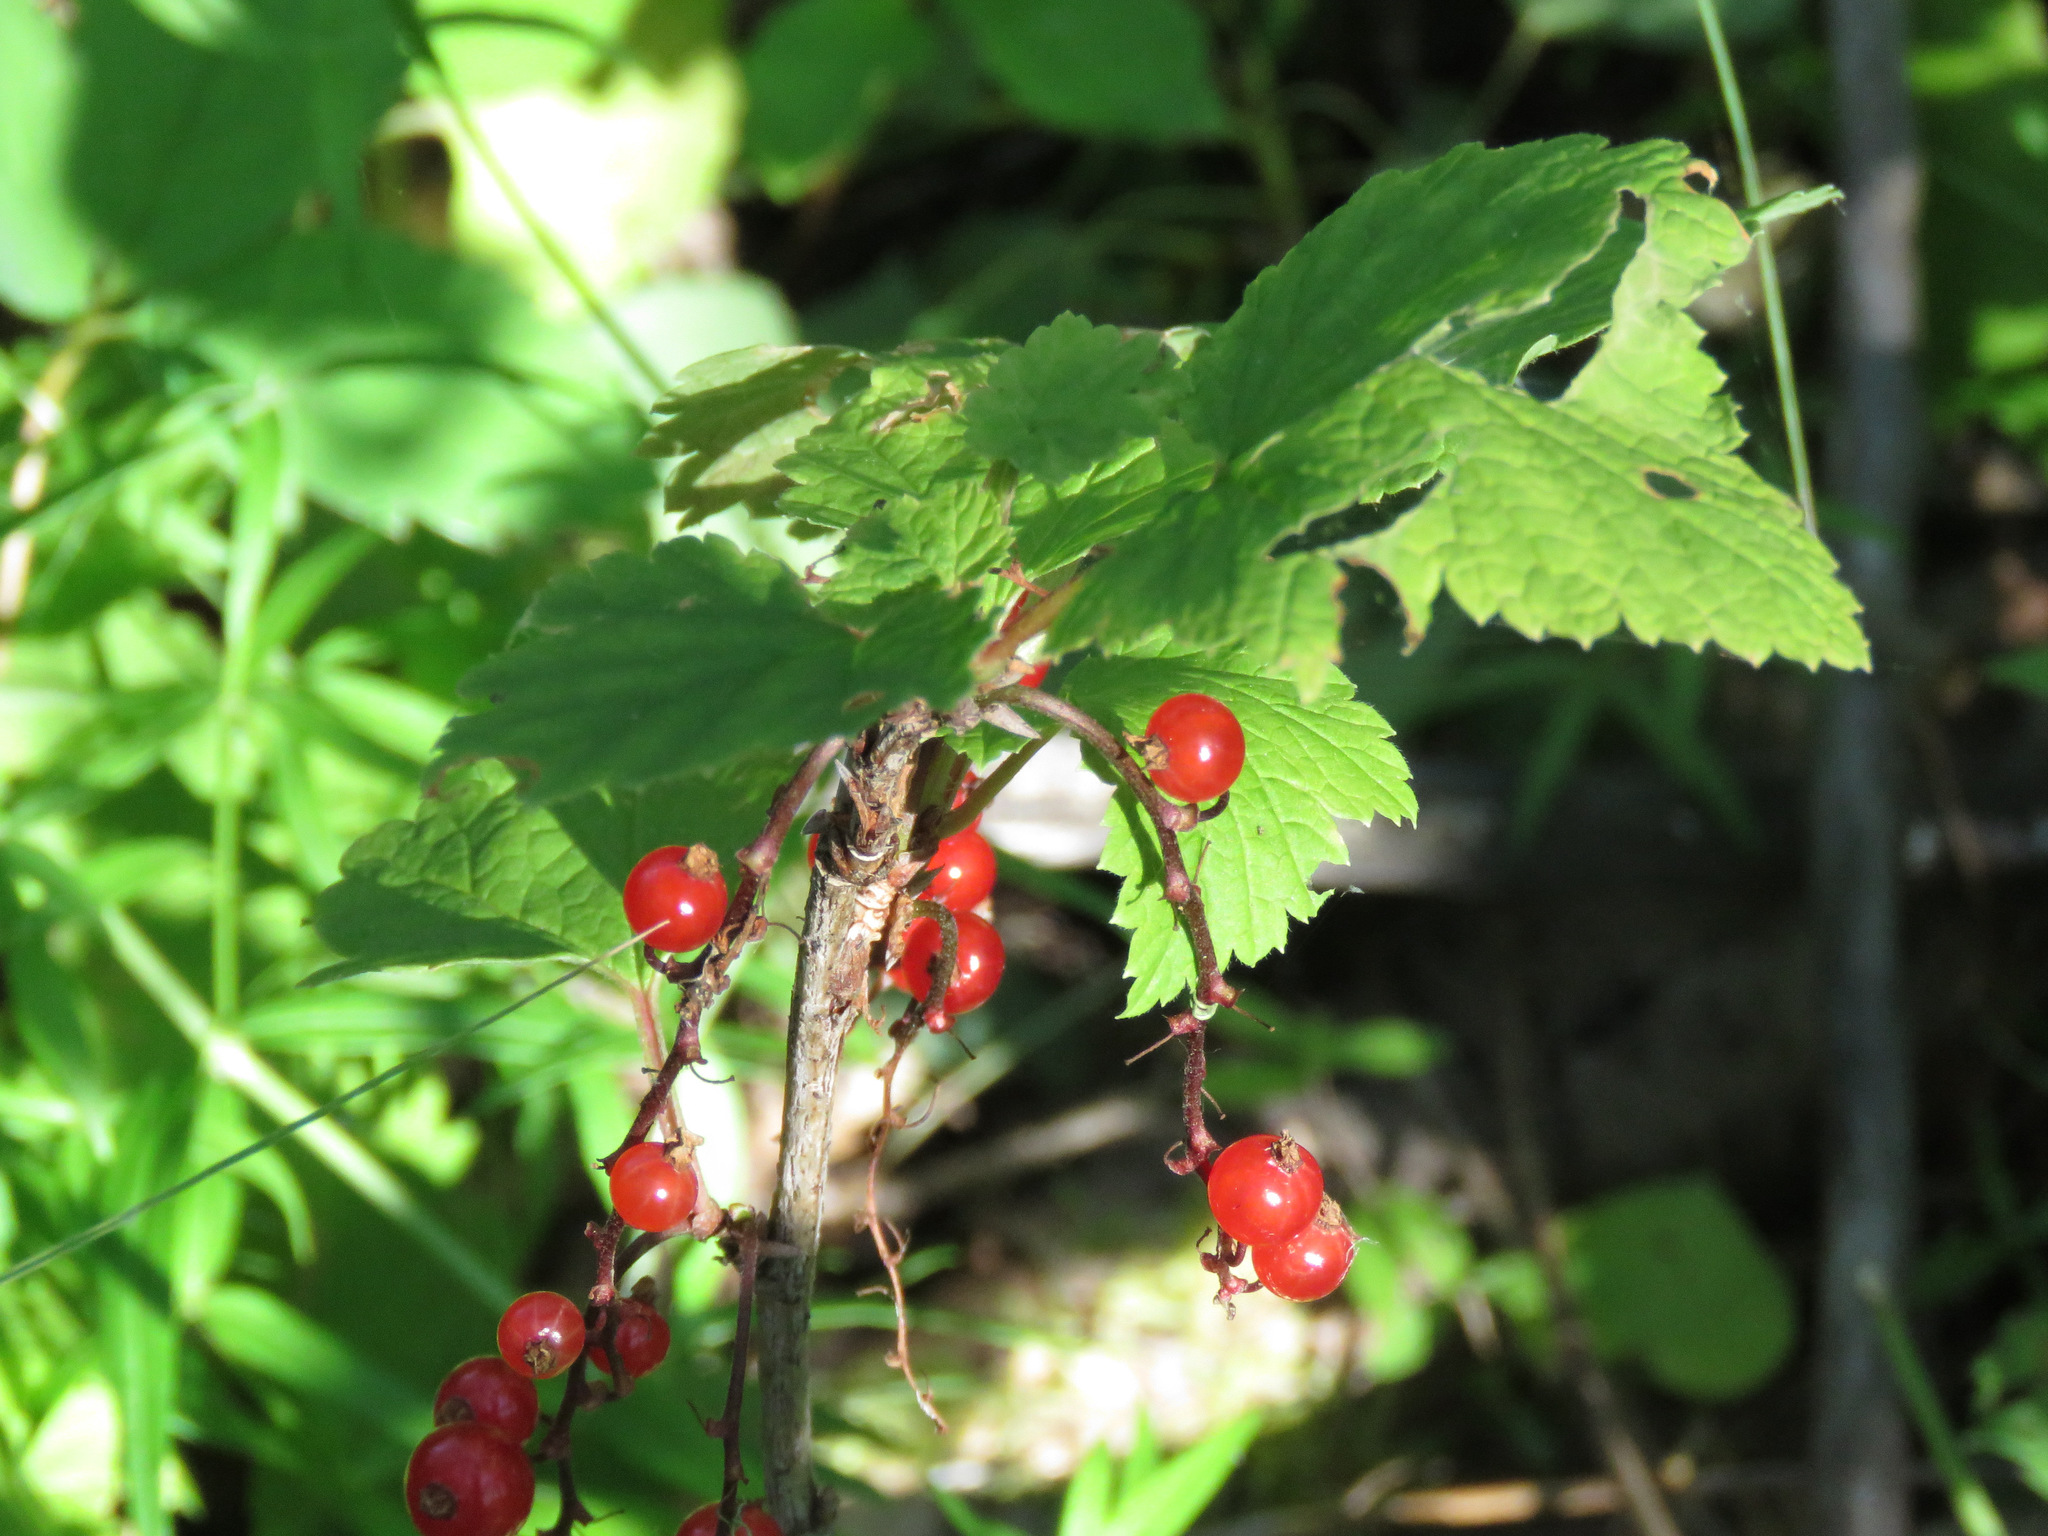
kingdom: Plantae
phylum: Tracheophyta
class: Magnoliopsida
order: Saxifragales
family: Grossulariaceae
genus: Ribes
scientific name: Ribes triste
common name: Swamp red currant
